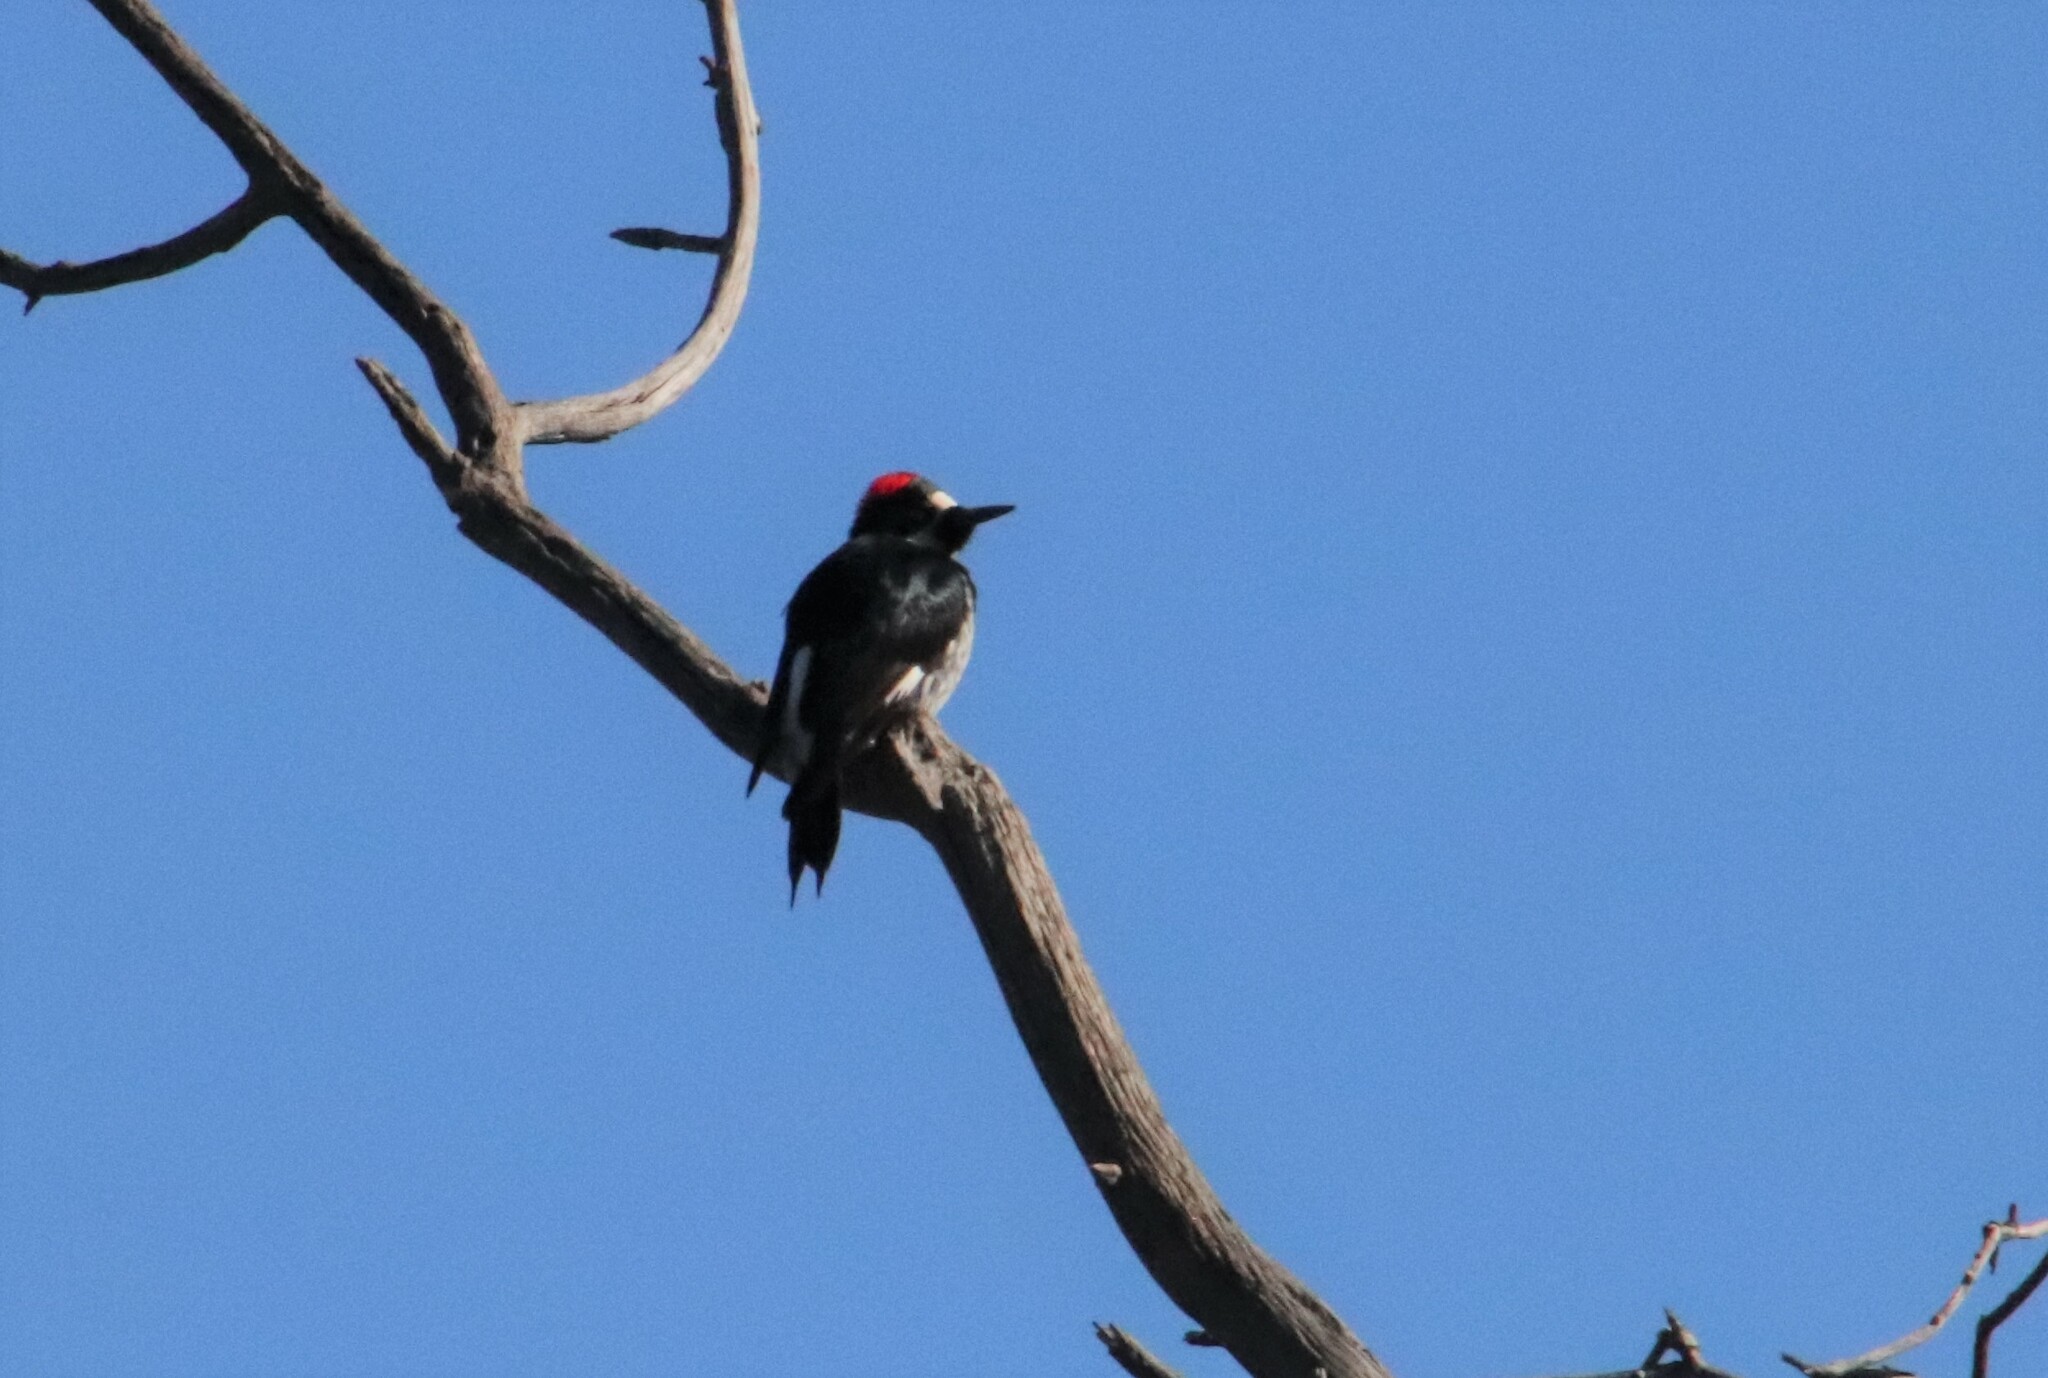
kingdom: Animalia
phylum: Chordata
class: Aves
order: Piciformes
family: Picidae
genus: Melanerpes
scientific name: Melanerpes formicivorus
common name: Acorn woodpecker
